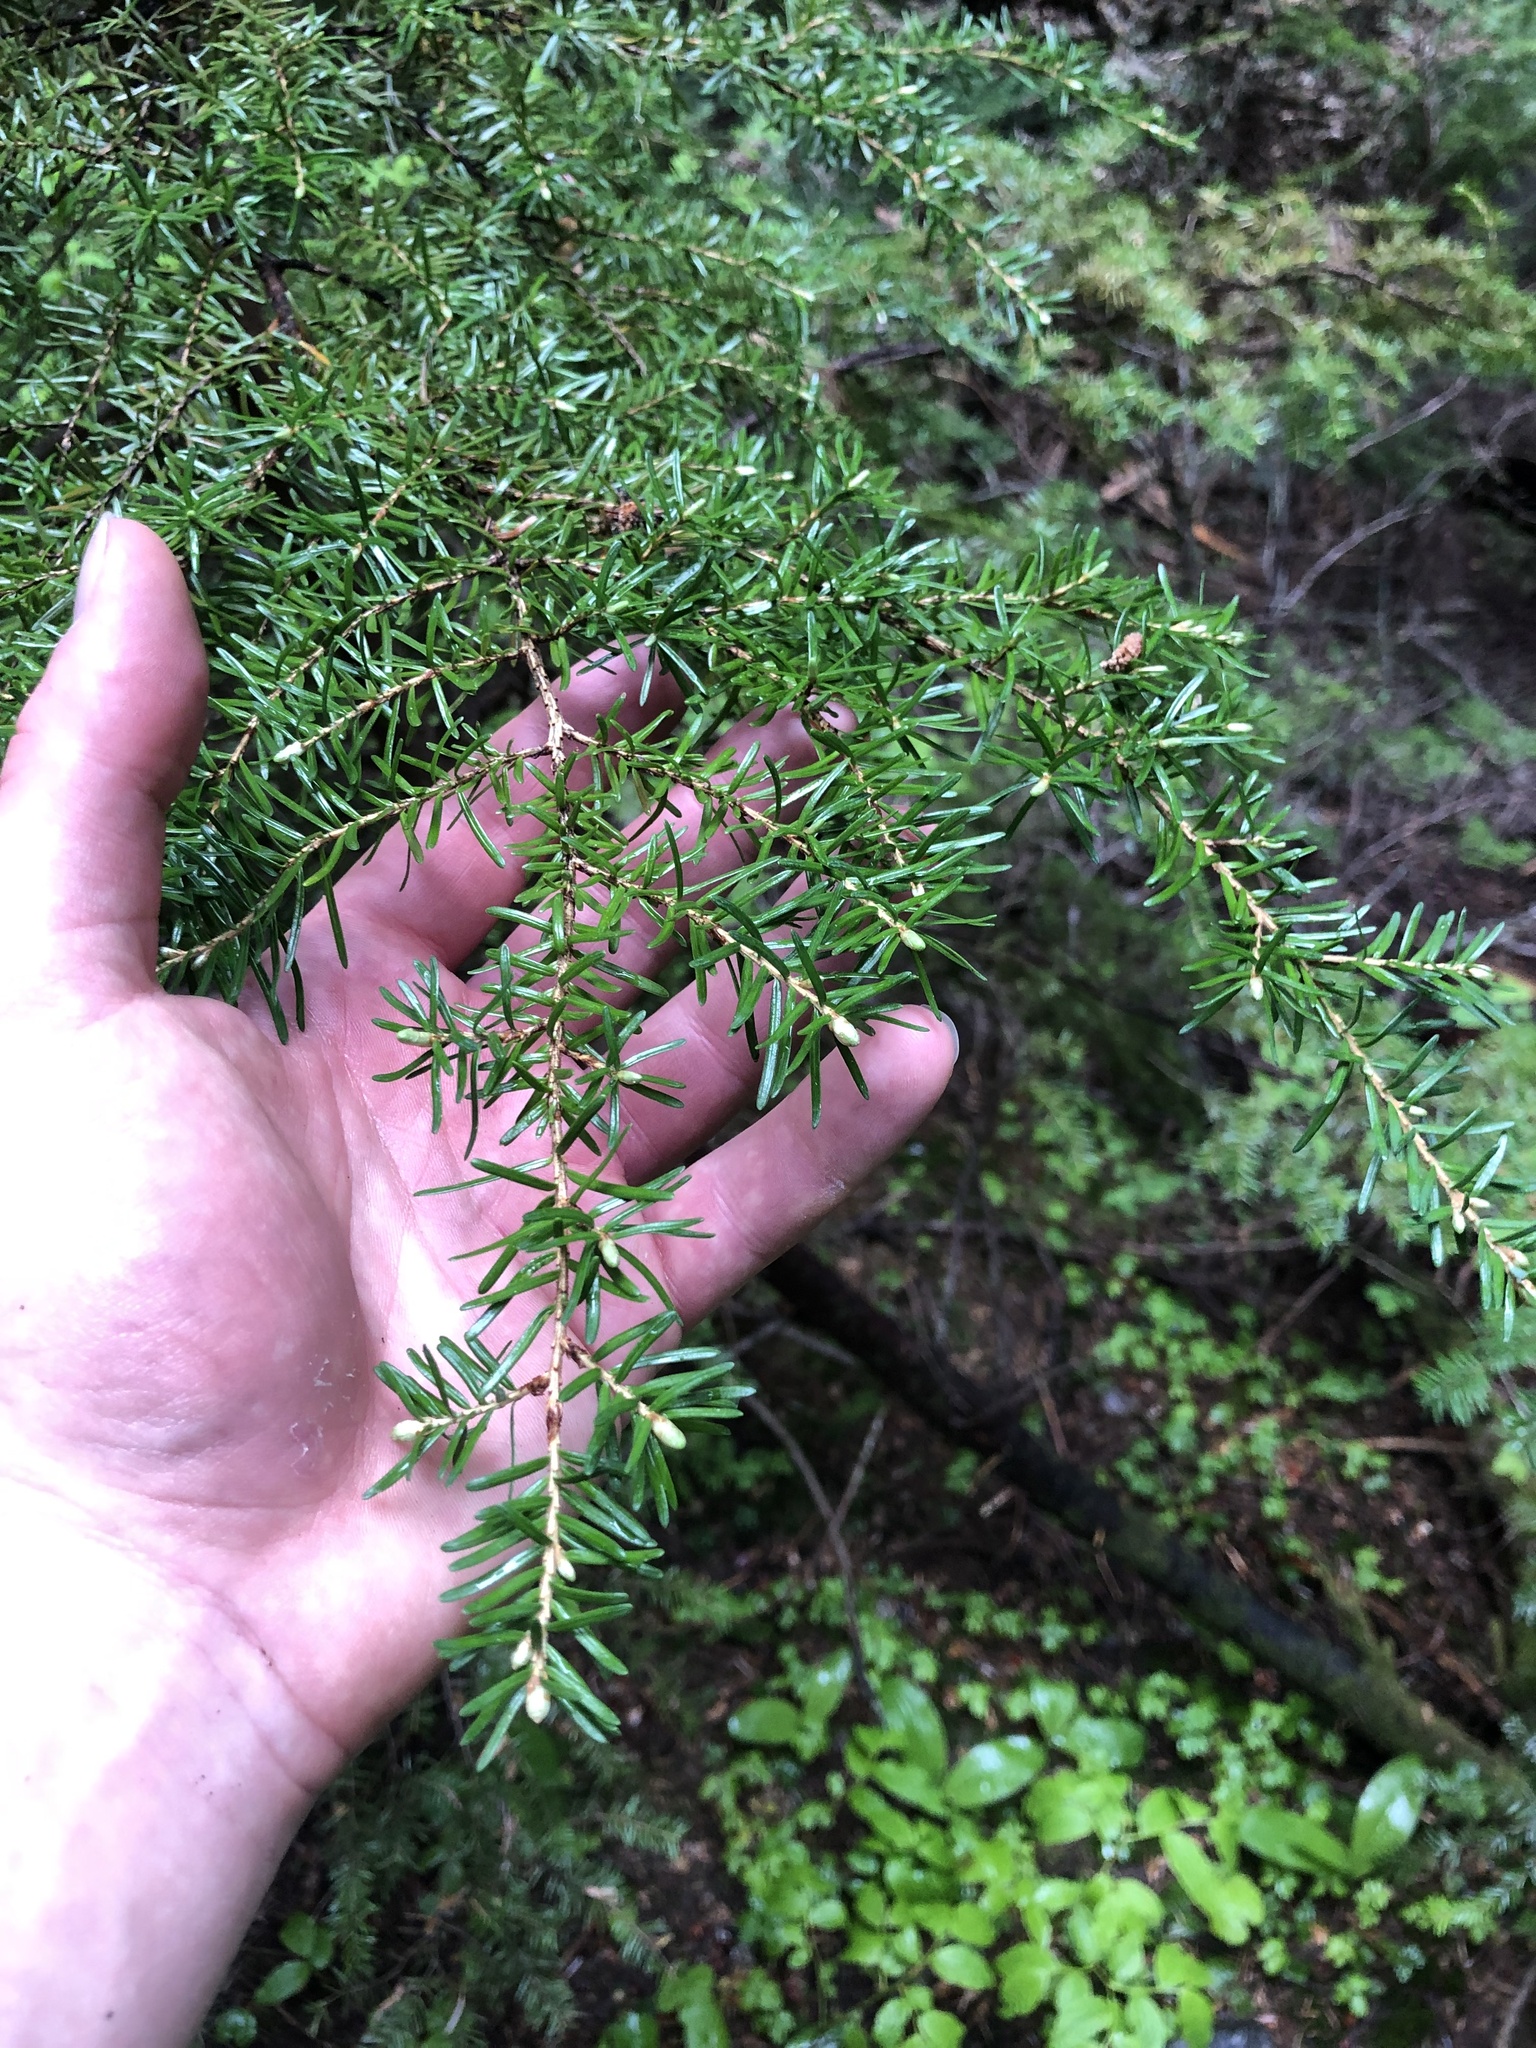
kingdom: Plantae
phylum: Tracheophyta
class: Pinopsida
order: Pinales
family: Pinaceae
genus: Tsuga
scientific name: Tsuga mertensiana
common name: Mountain hemlock
